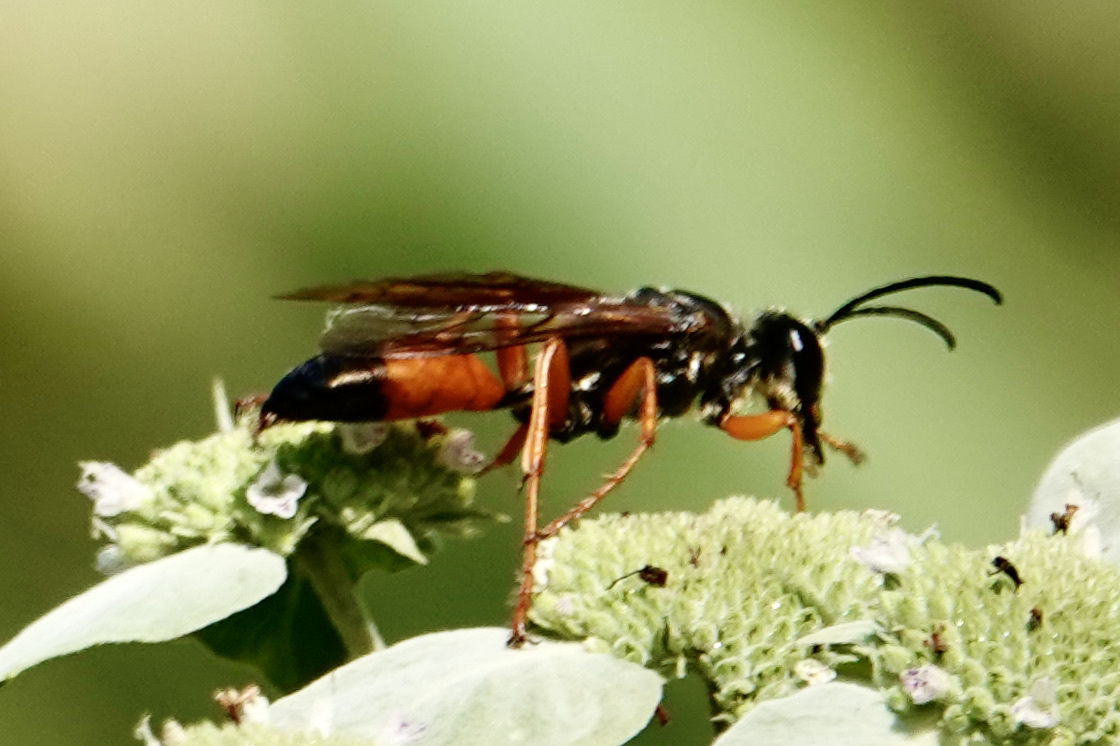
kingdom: Animalia
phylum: Arthropoda
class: Insecta
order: Hymenoptera
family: Sphecidae
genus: Sphex
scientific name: Sphex ichneumoneus
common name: Great golden digger wasp
